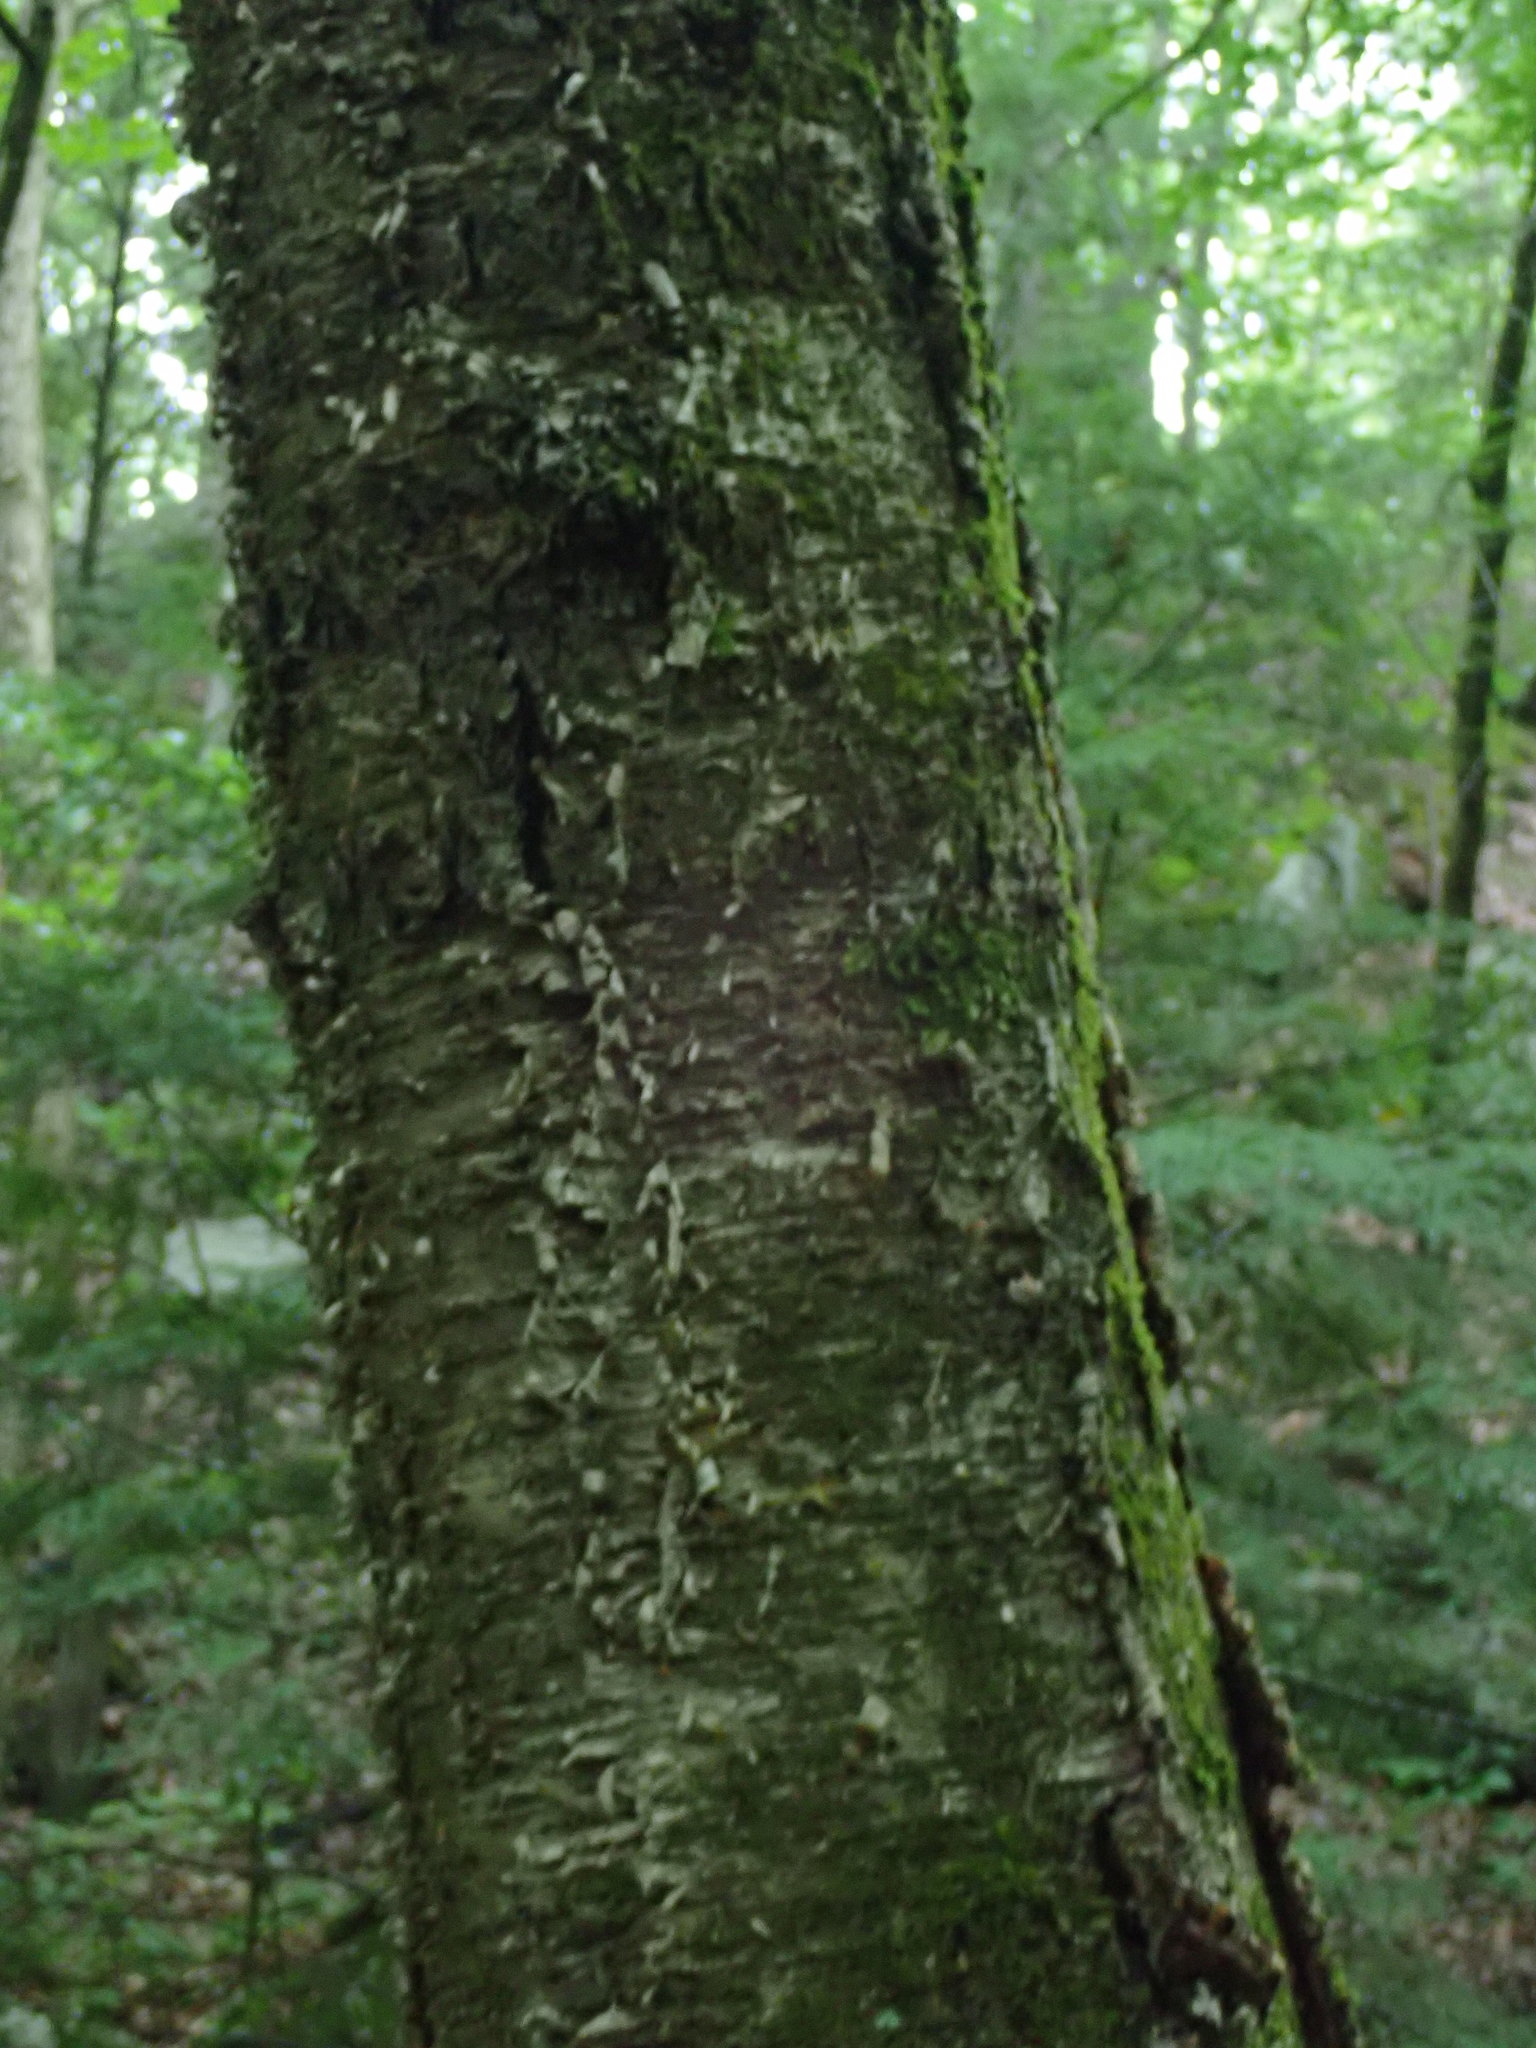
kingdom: Plantae
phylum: Tracheophyta
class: Magnoliopsida
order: Fagales
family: Betulaceae
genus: Betula
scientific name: Betula alleghaniensis
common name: Yellow birch
